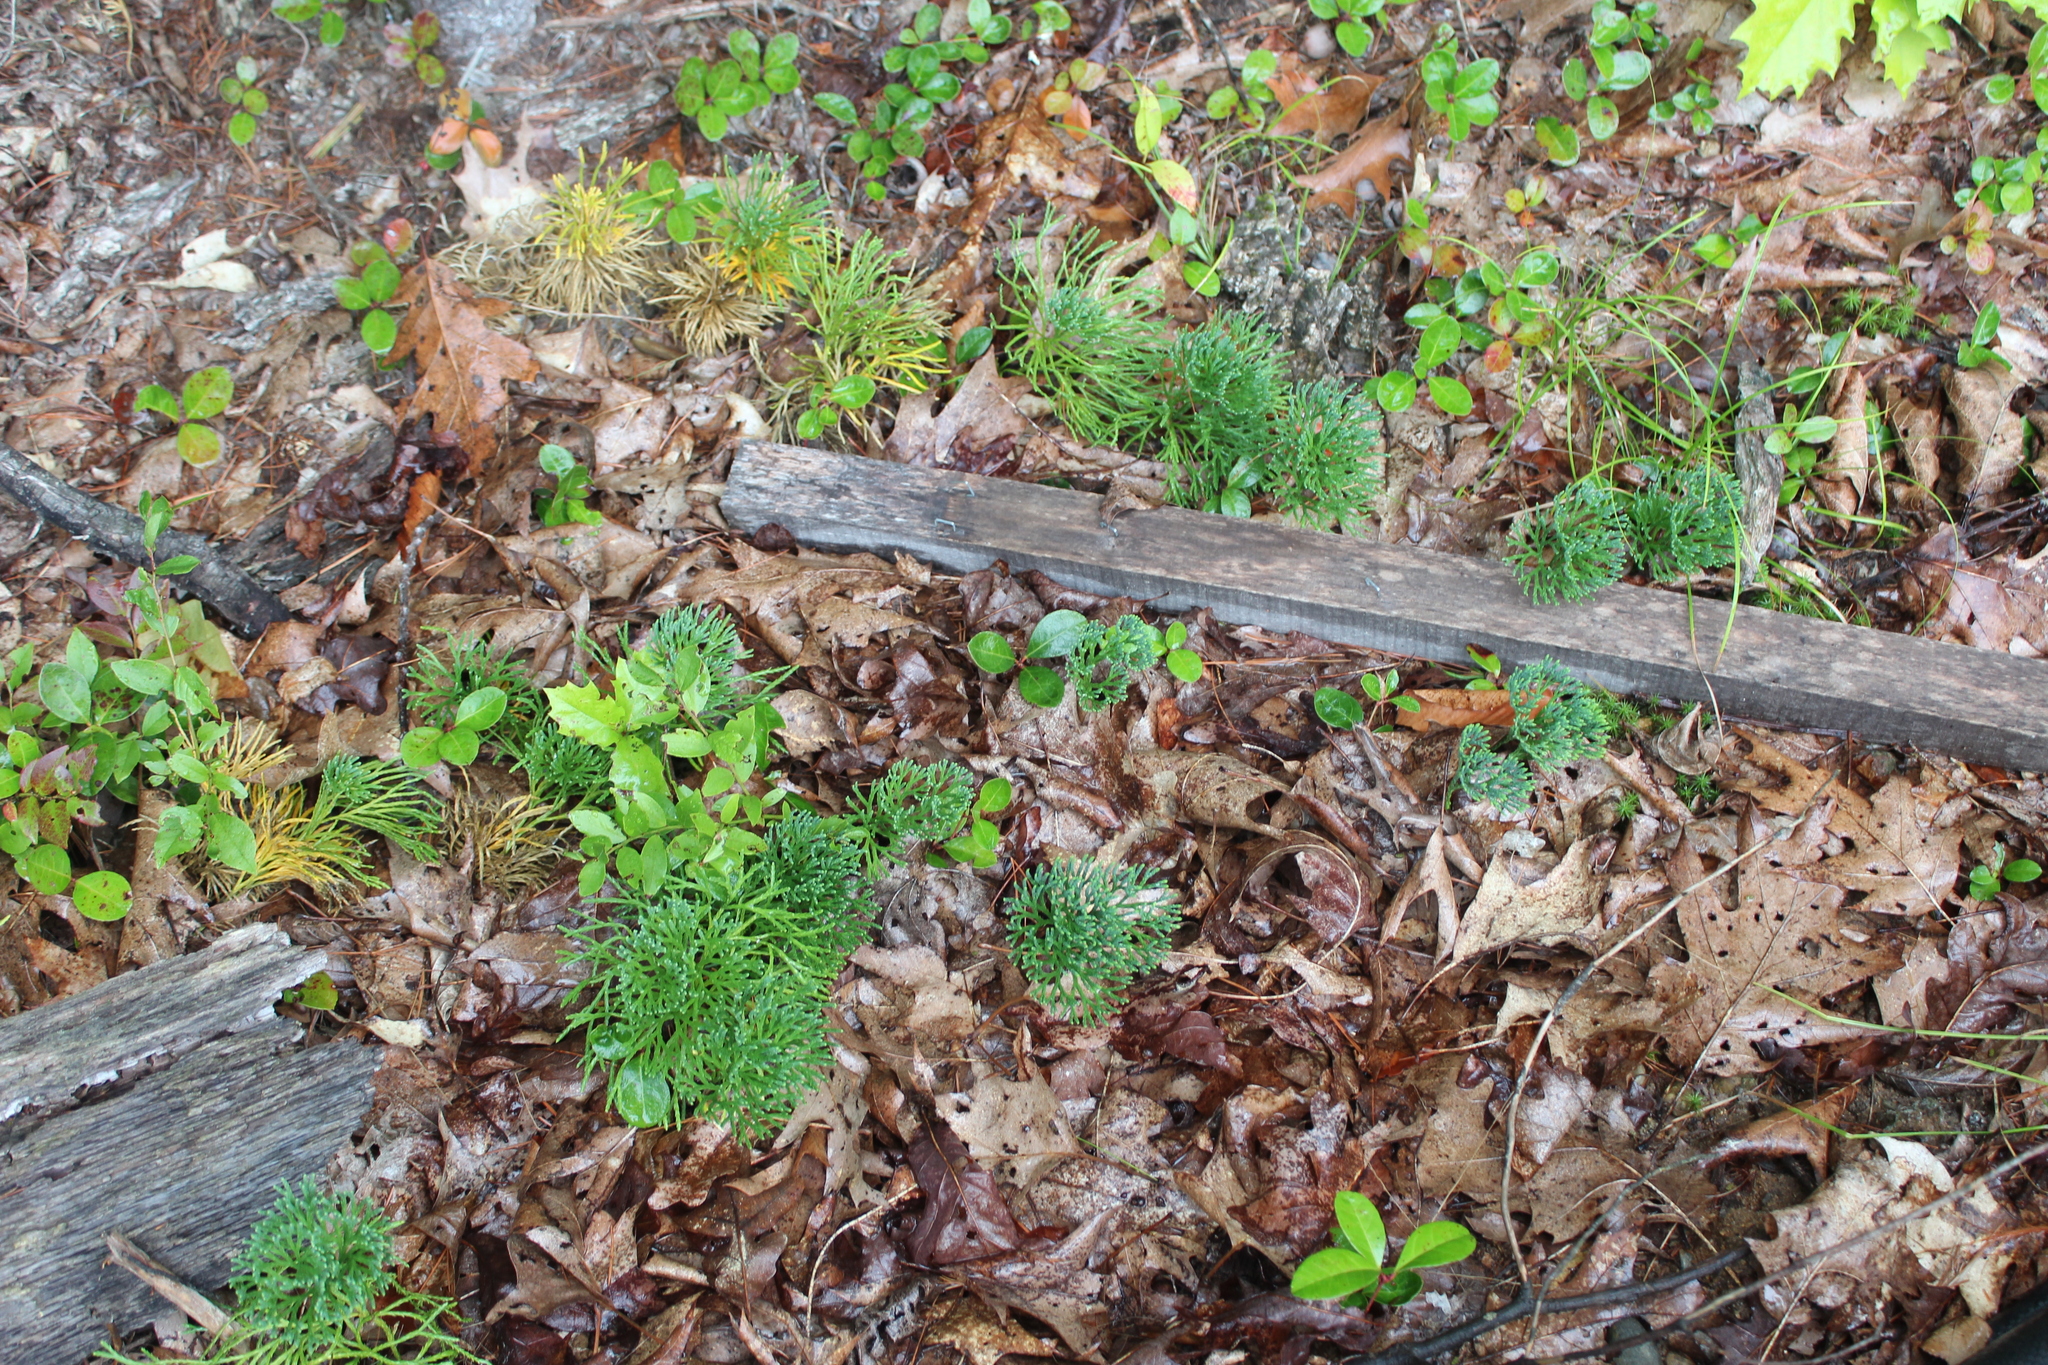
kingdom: Plantae
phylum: Tracheophyta
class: Lycopodiopsida
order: Lycopodiales
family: Lycopodiaceae
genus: Diphasiastrum
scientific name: Diphasiastrum tristachyum
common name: Blue ground-cedar
